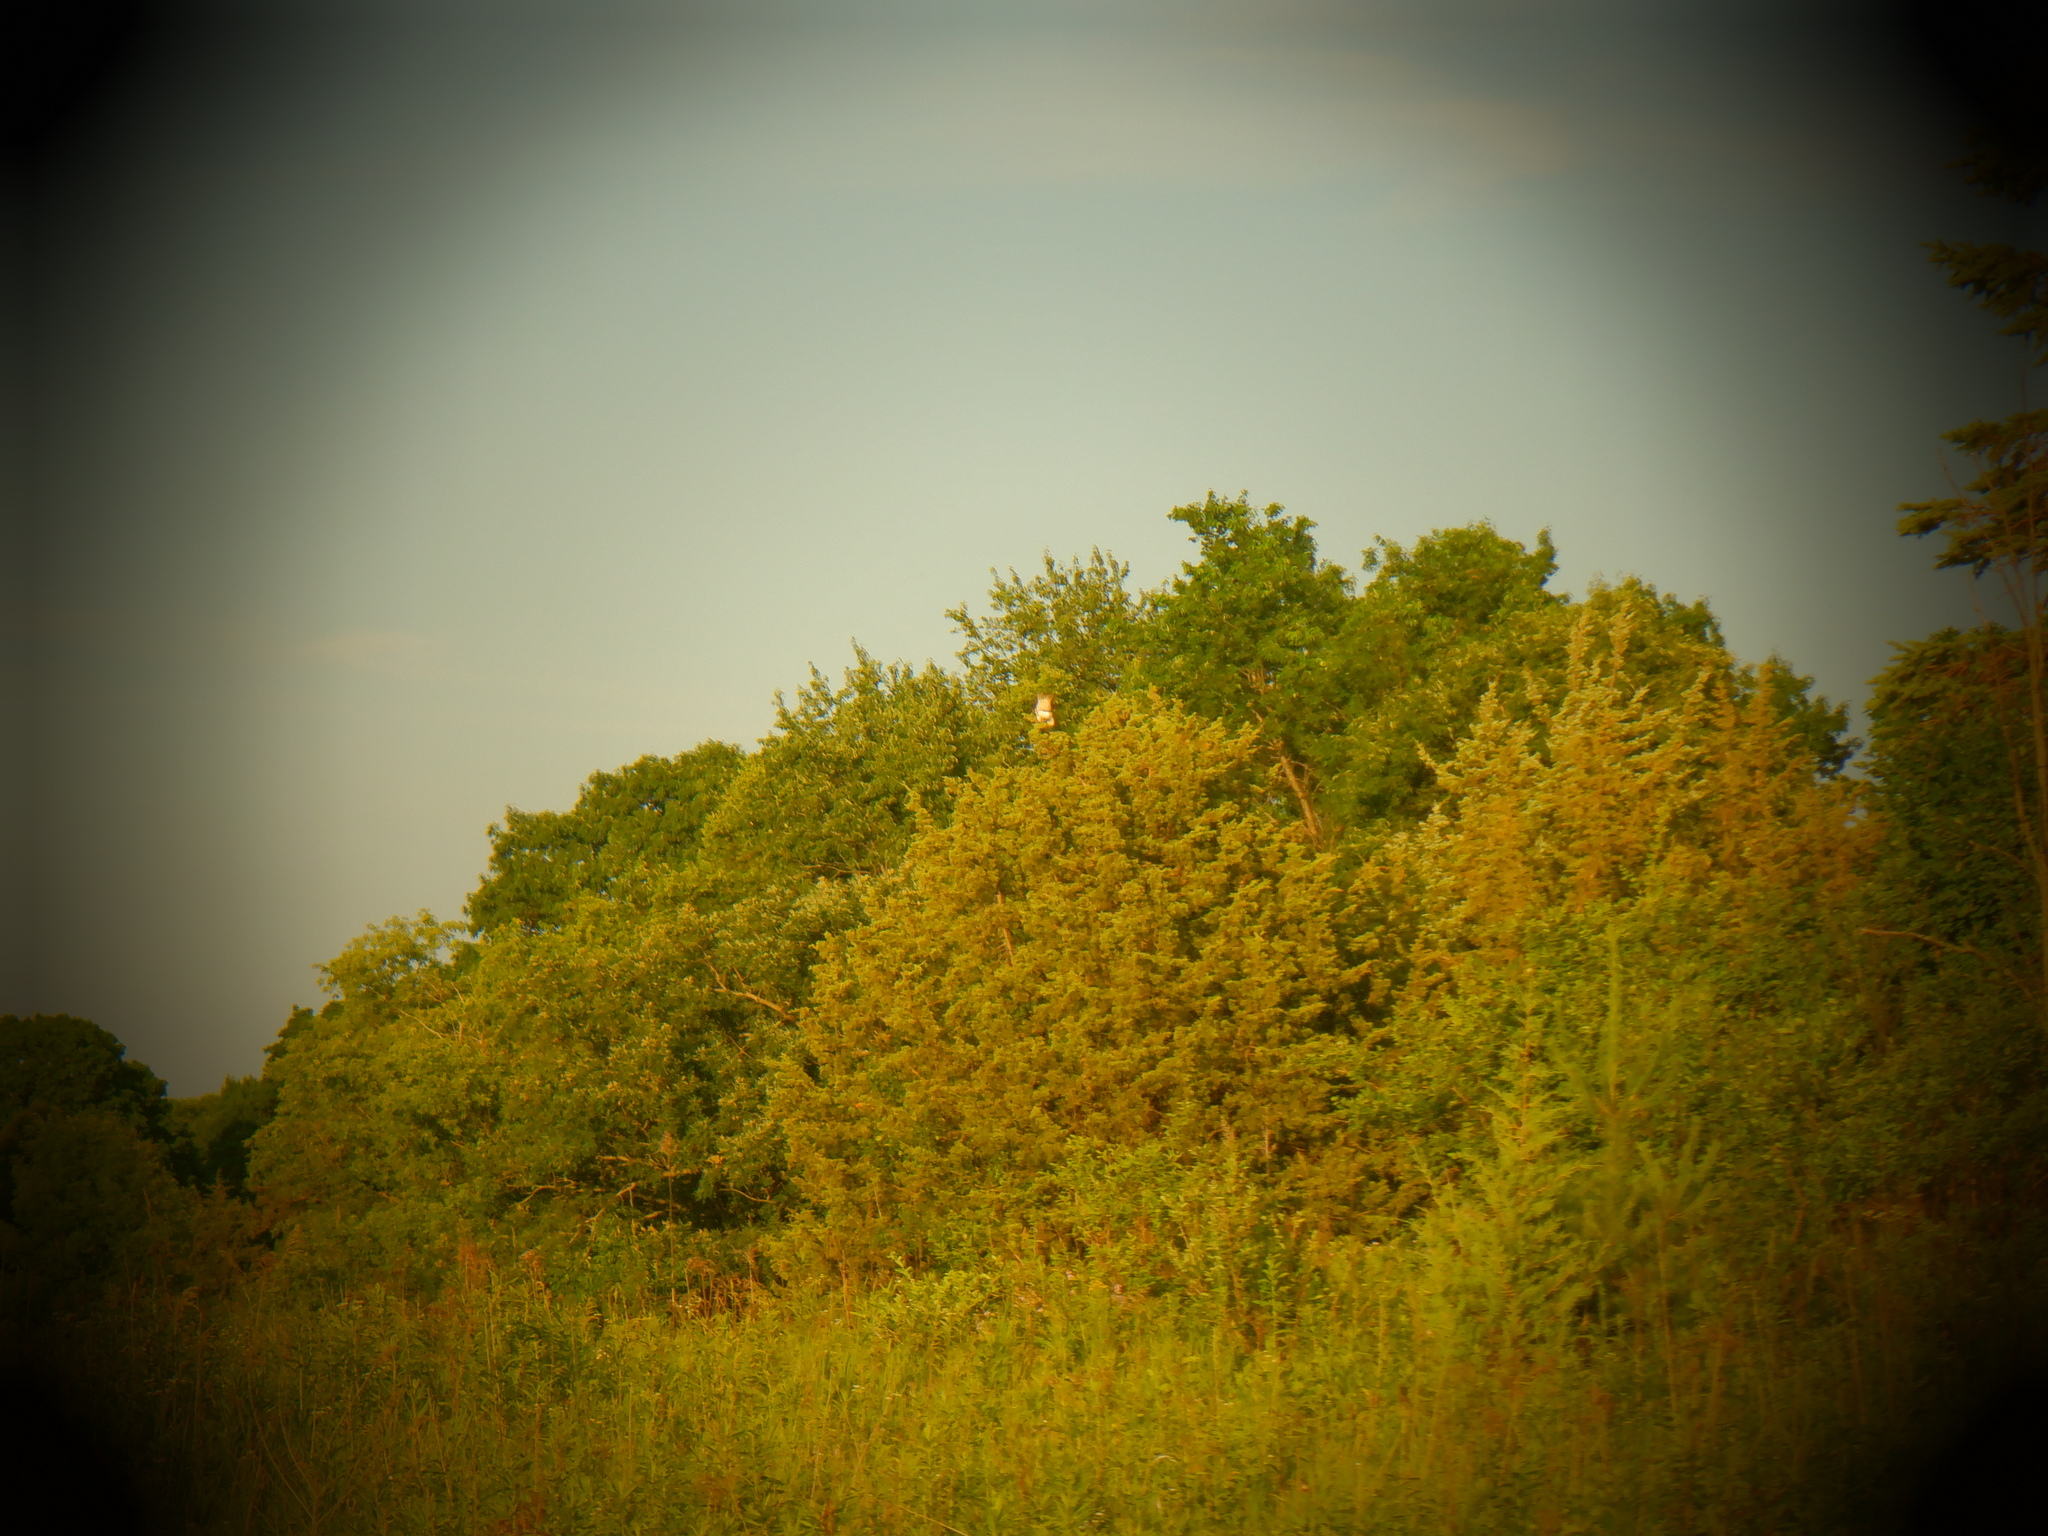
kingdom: Animalia
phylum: Chordata
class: Aves
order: Accipitriformes
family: Accipitridae
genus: Buteo
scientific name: Buteo jamaicensis
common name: Red-tailed hawk
